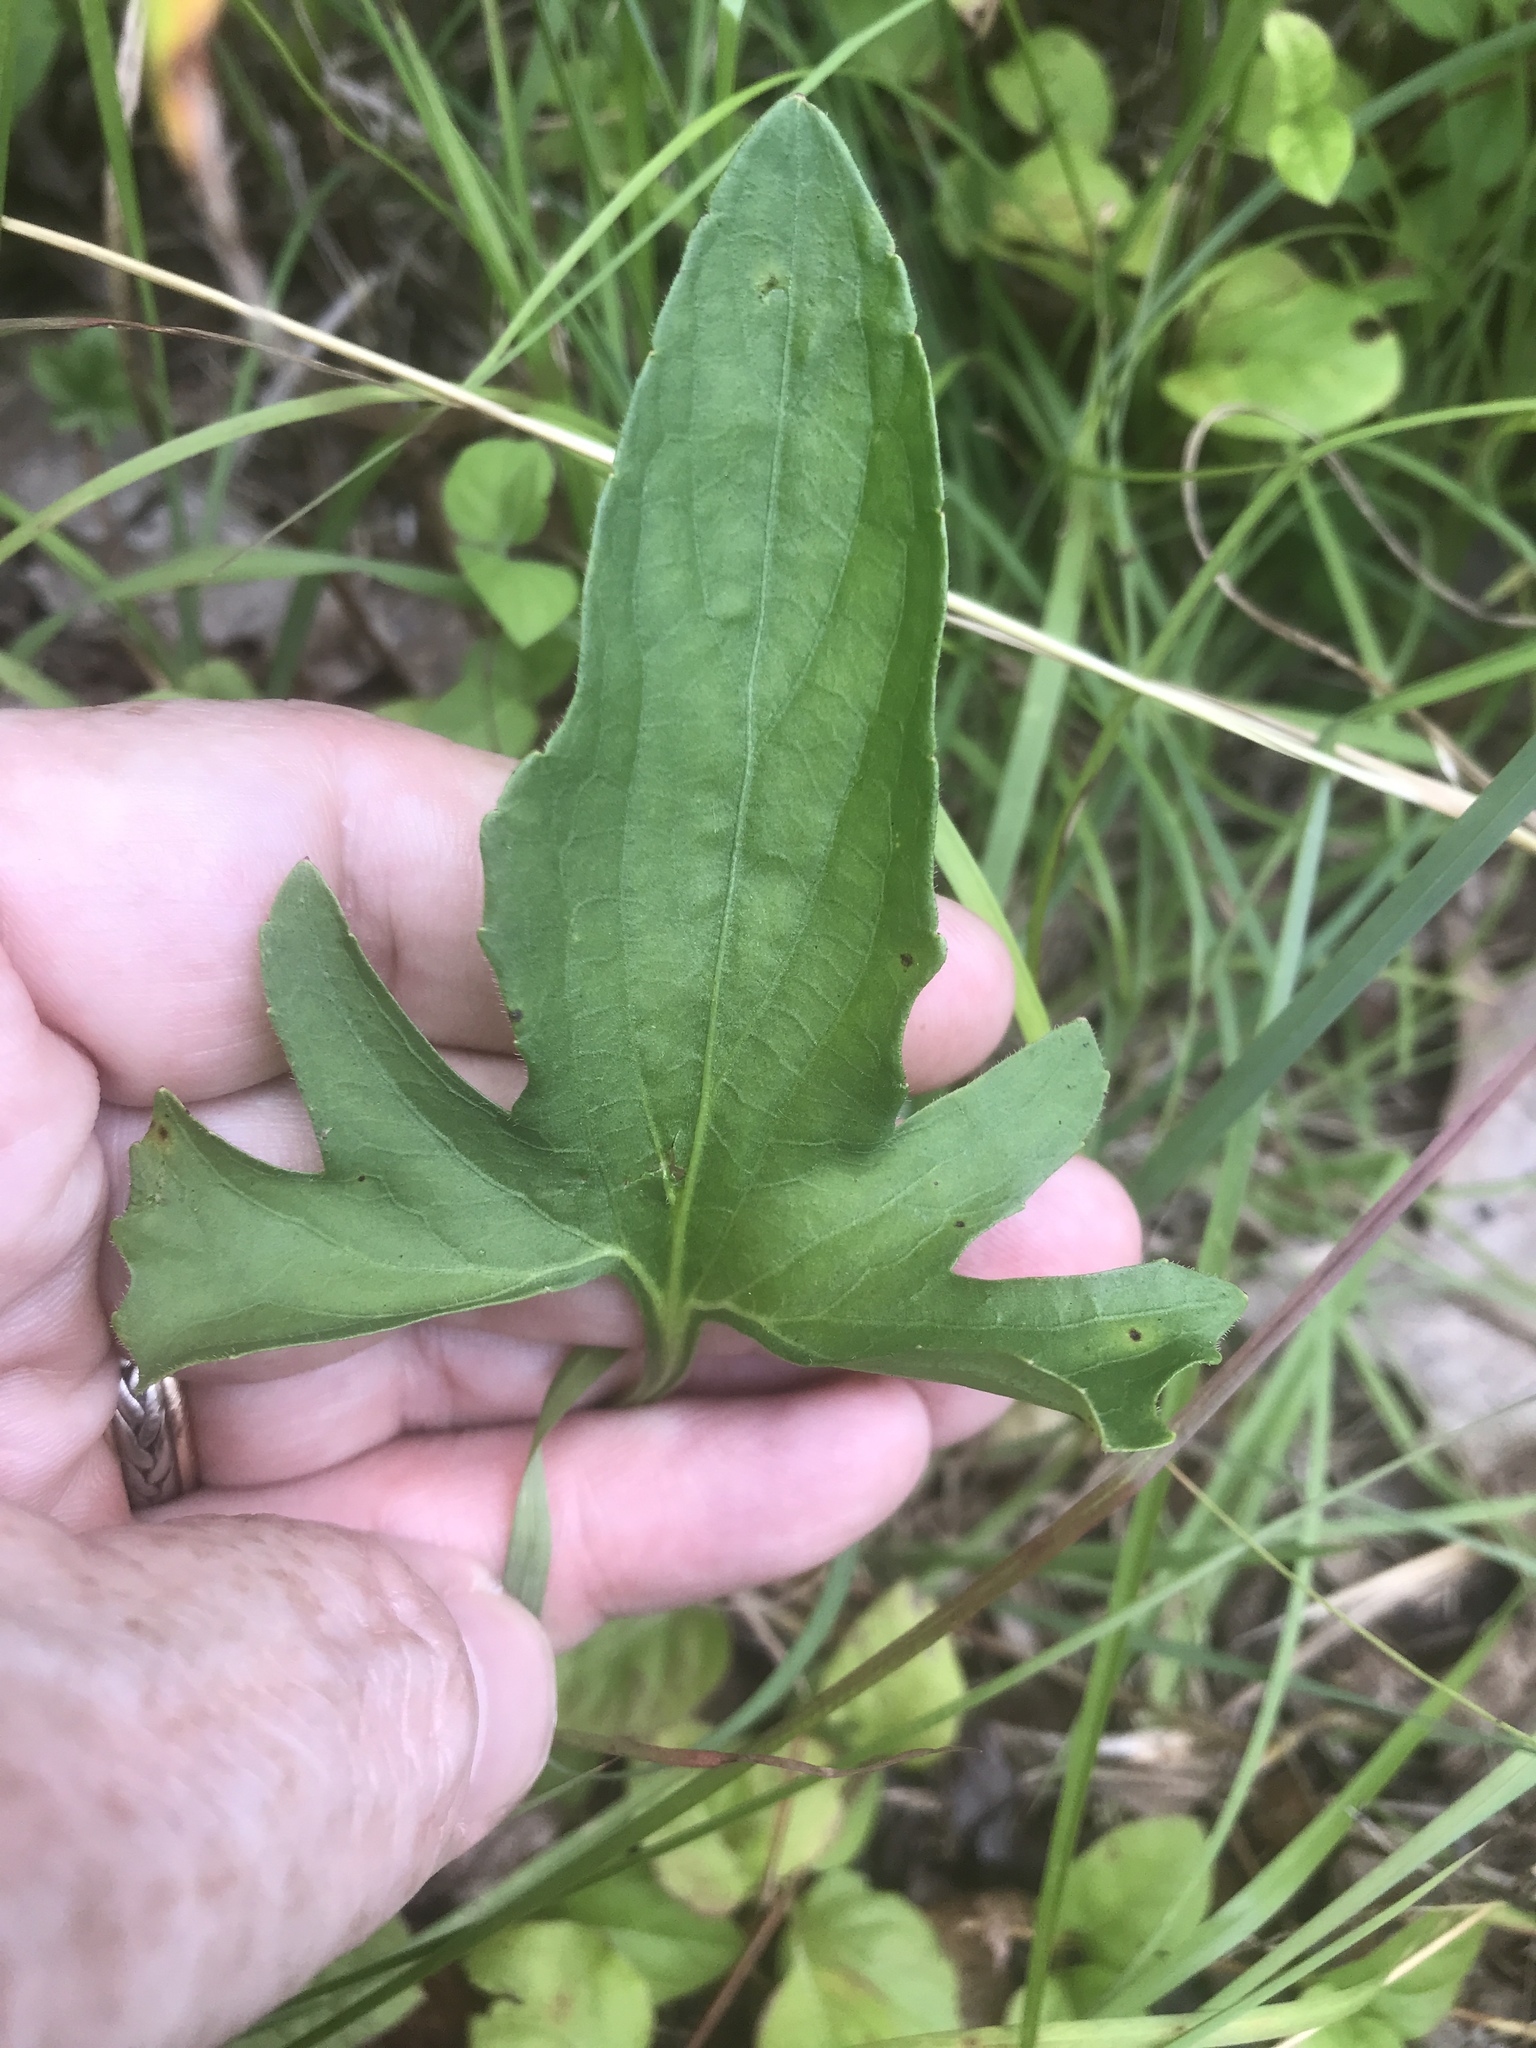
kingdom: Plantae
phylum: Tracheophyta
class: Magnoliopsida
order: Malpighiales
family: Violaceae
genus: Viola
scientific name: Viola palmata
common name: Early blue violet
